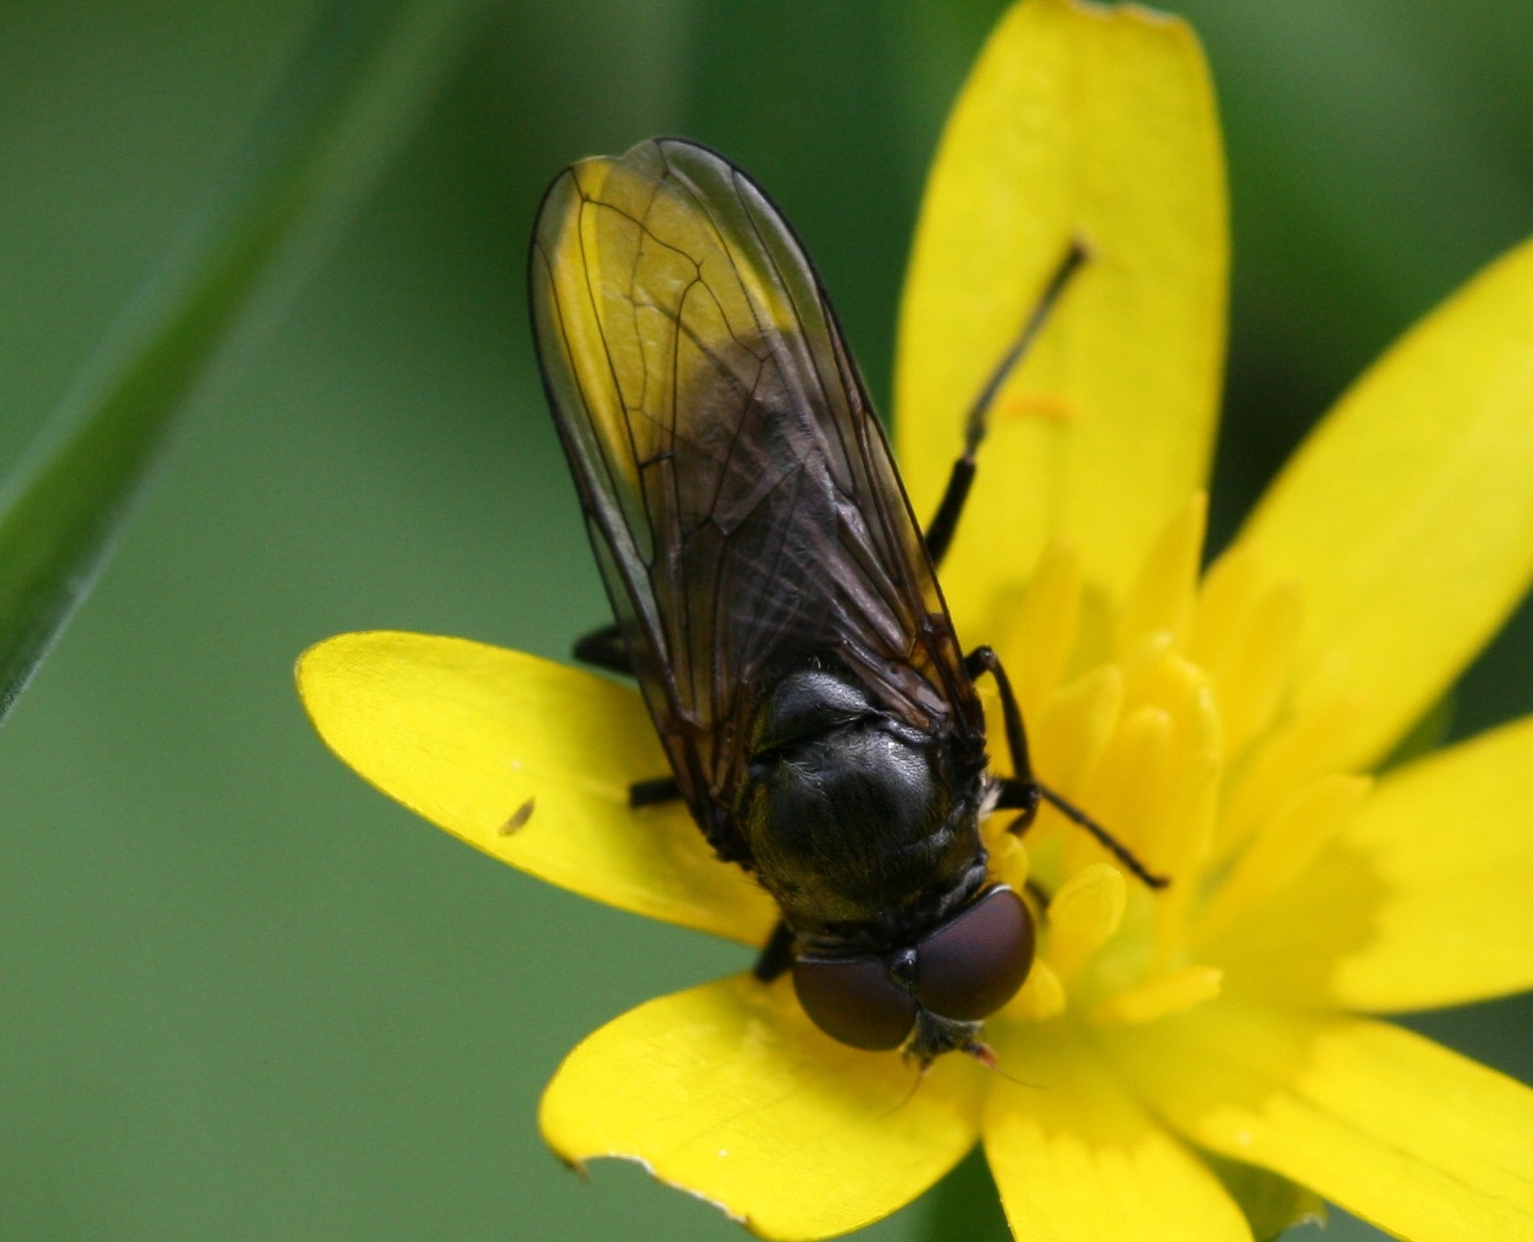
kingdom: Animalia
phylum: Arthropoda
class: Insecta
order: Diptera
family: Syrphidae
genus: Portevinia
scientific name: Portevinia maculata
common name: Ramson's hoverfly
